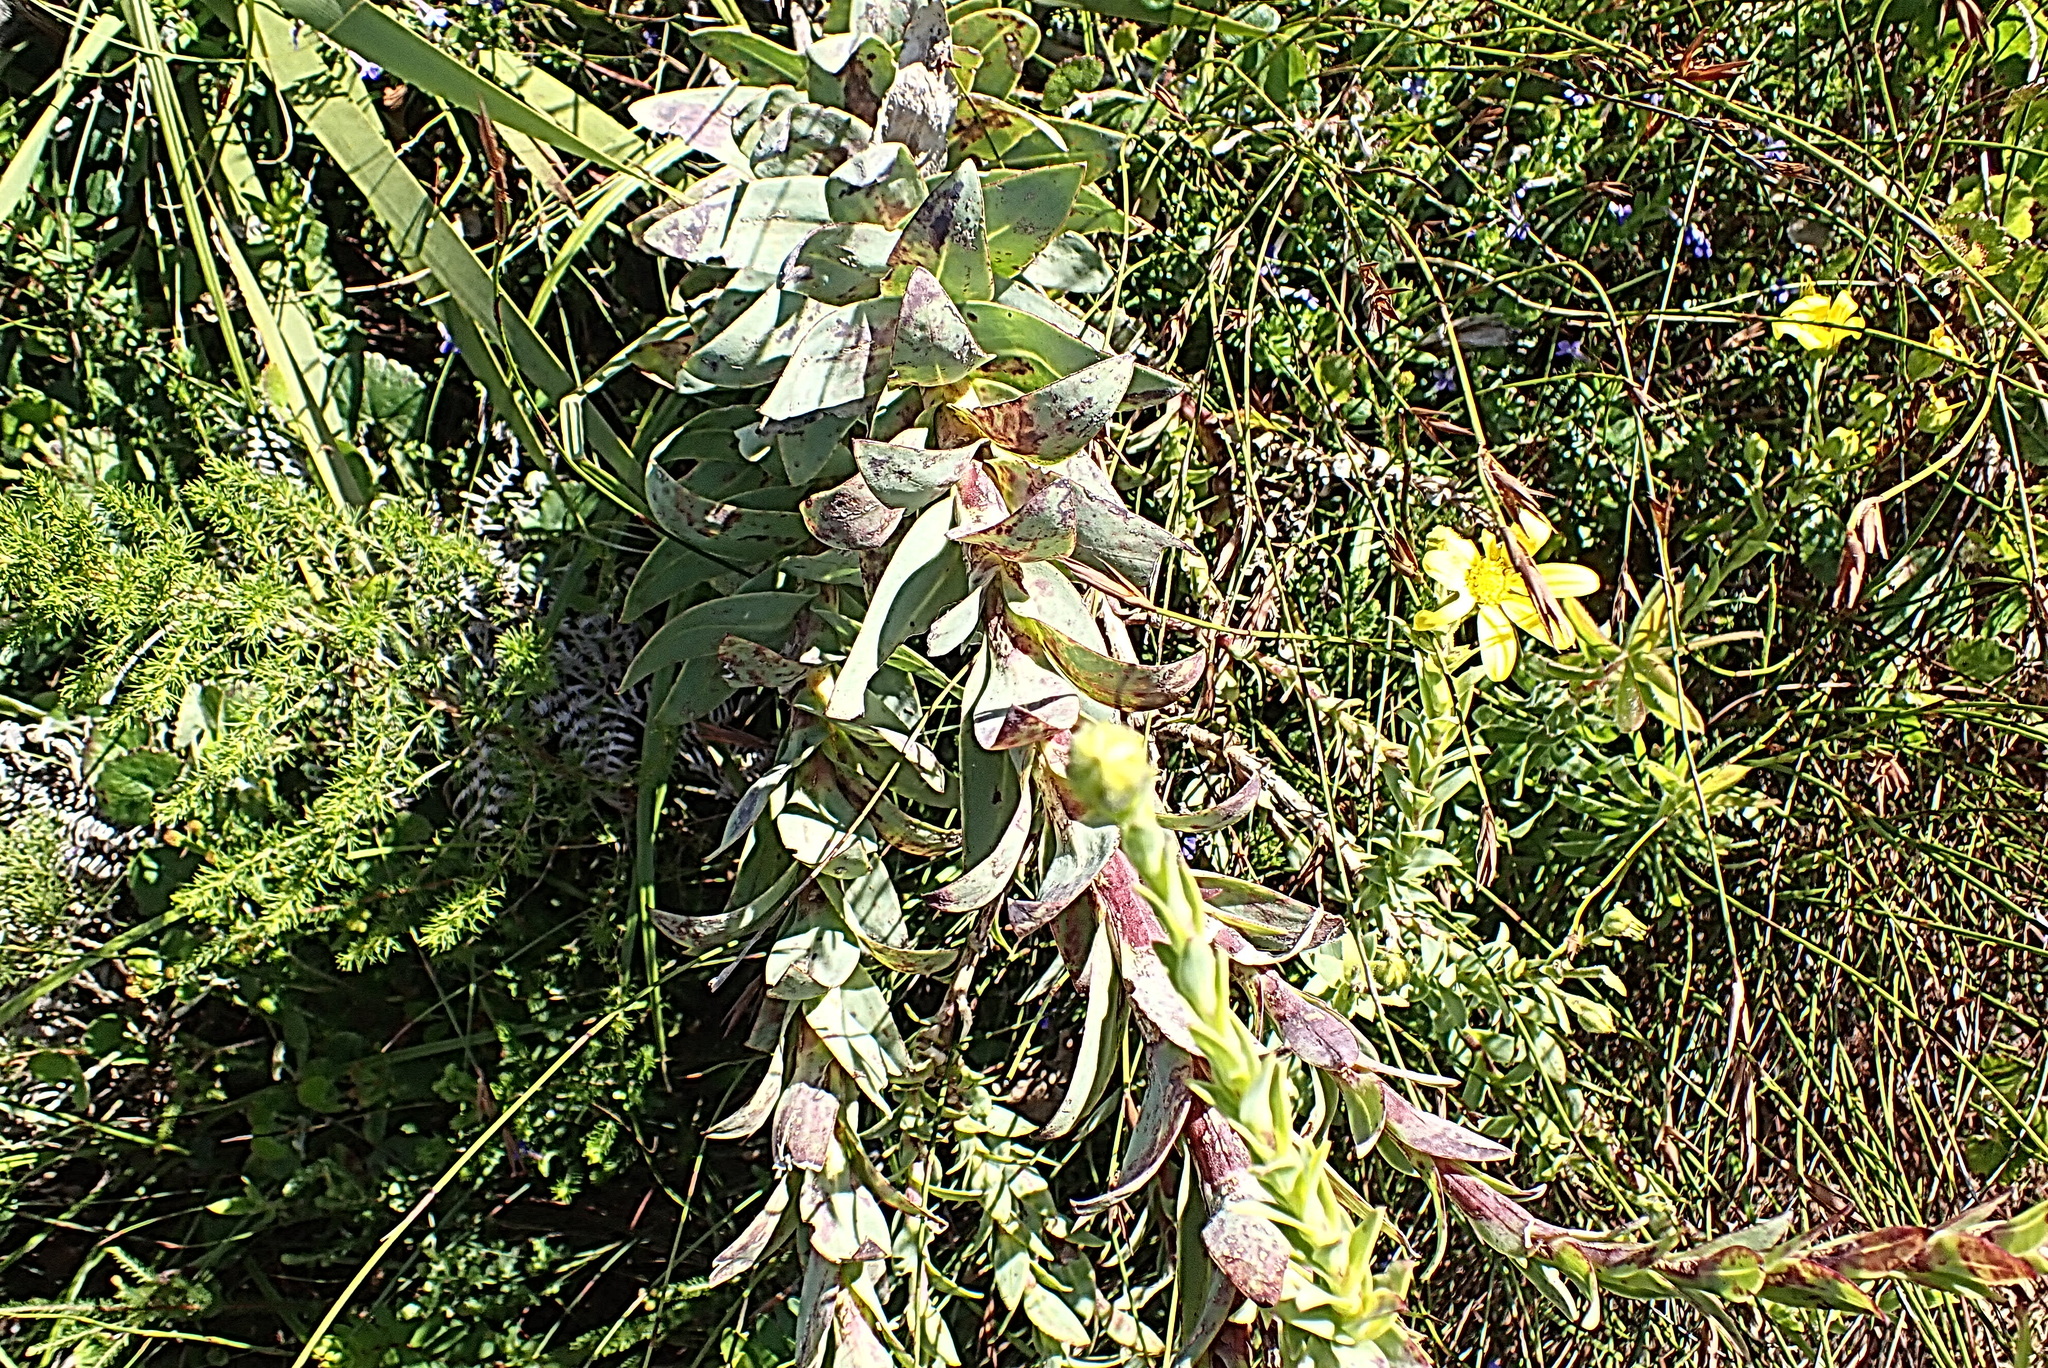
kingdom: Plantae
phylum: Tracheophyta
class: Magnoliopsida
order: Asterales
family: Asteraceae
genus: Osteospermum
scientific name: Osteospermum corymbosum
